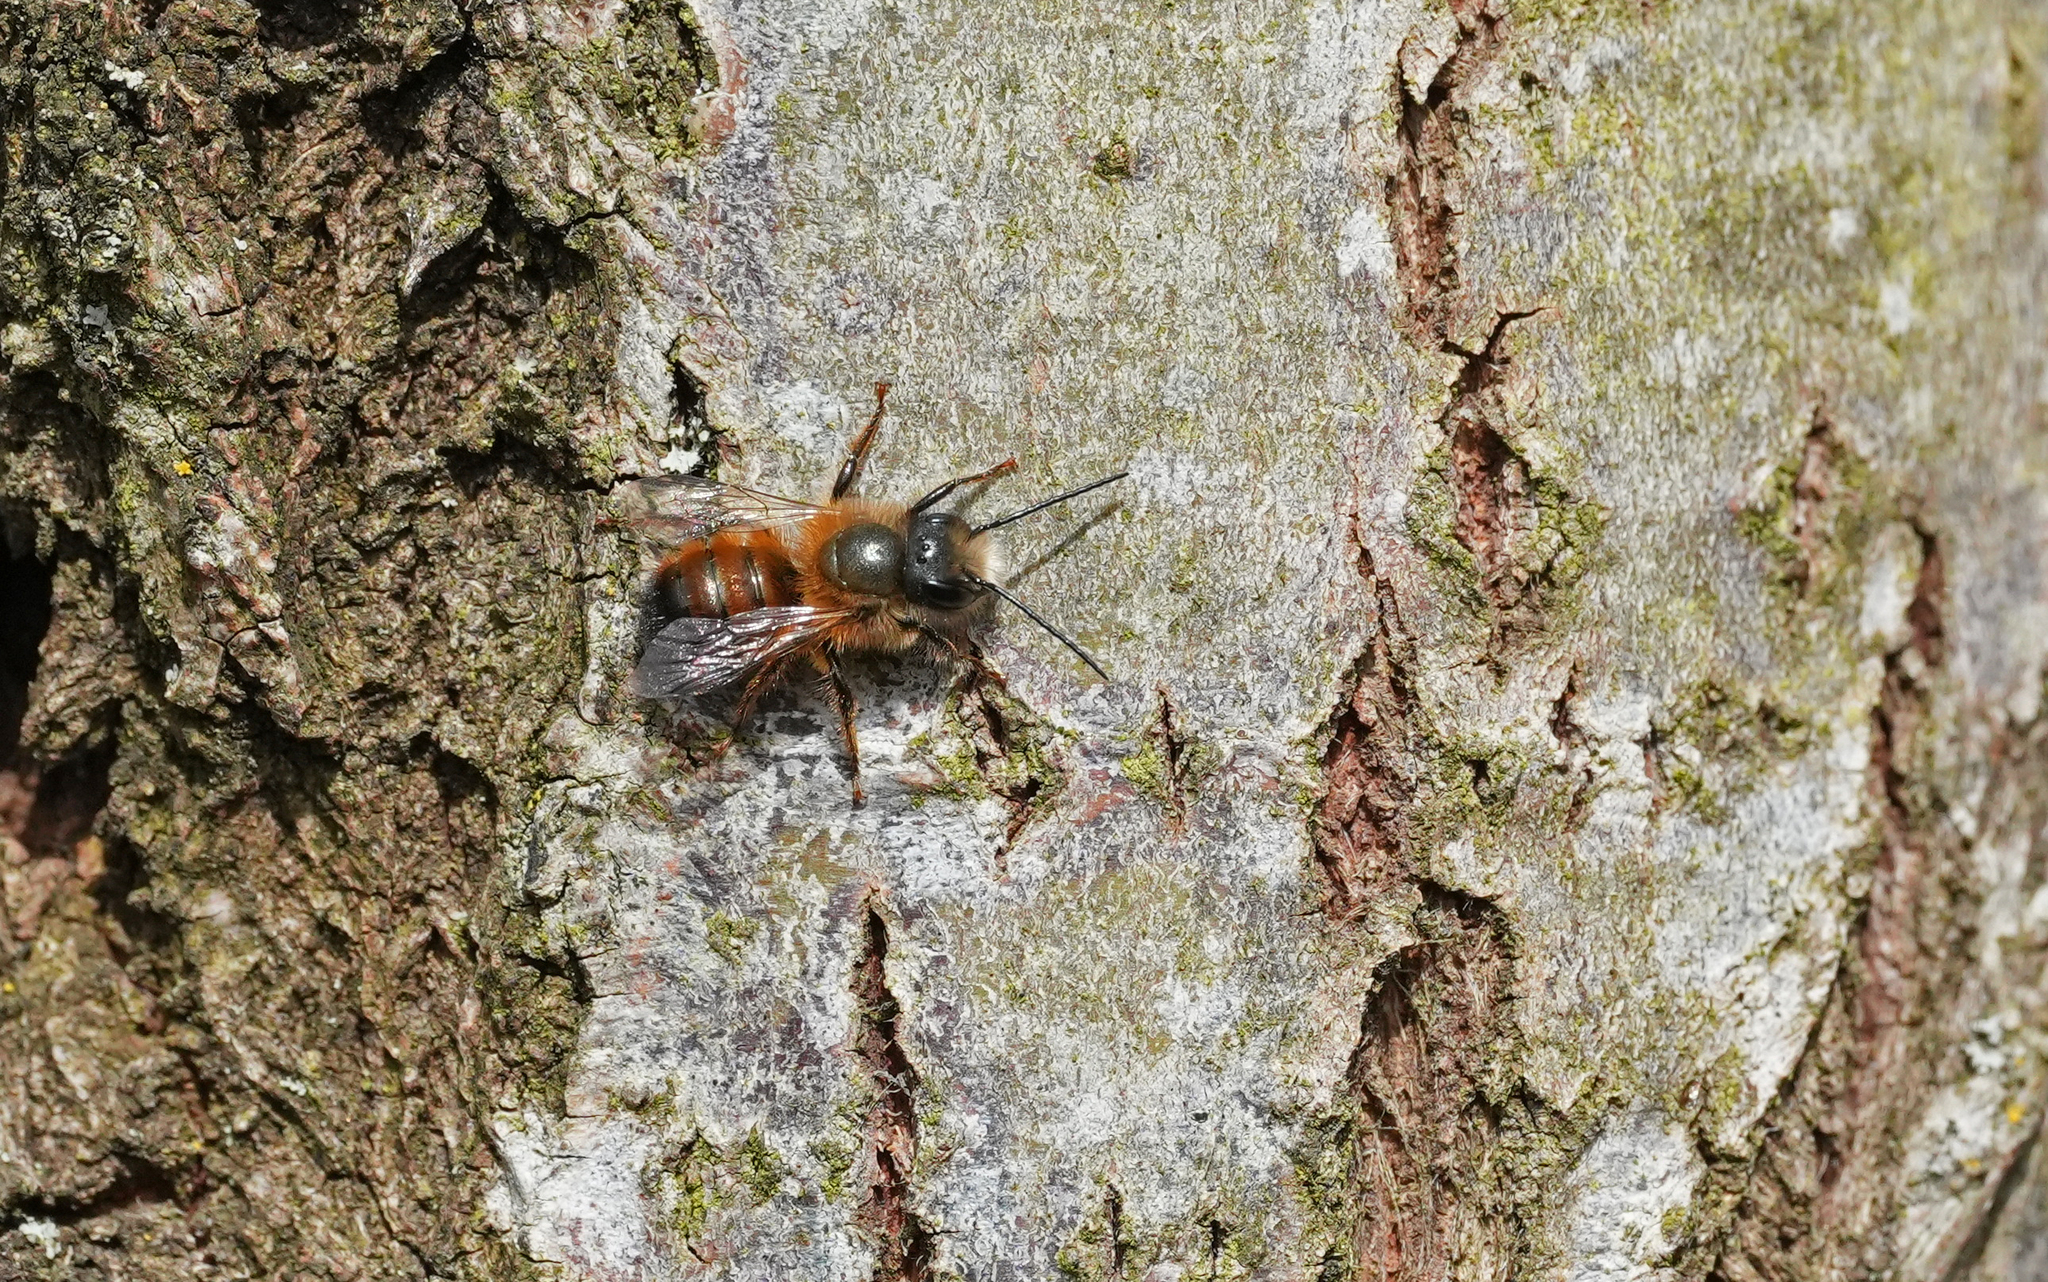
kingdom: Animalia
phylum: Arthropoda
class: Insecta
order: Hymenoptera
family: Megachilidae
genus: Osmia
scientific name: Osmia bicornis
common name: Red mason bee
